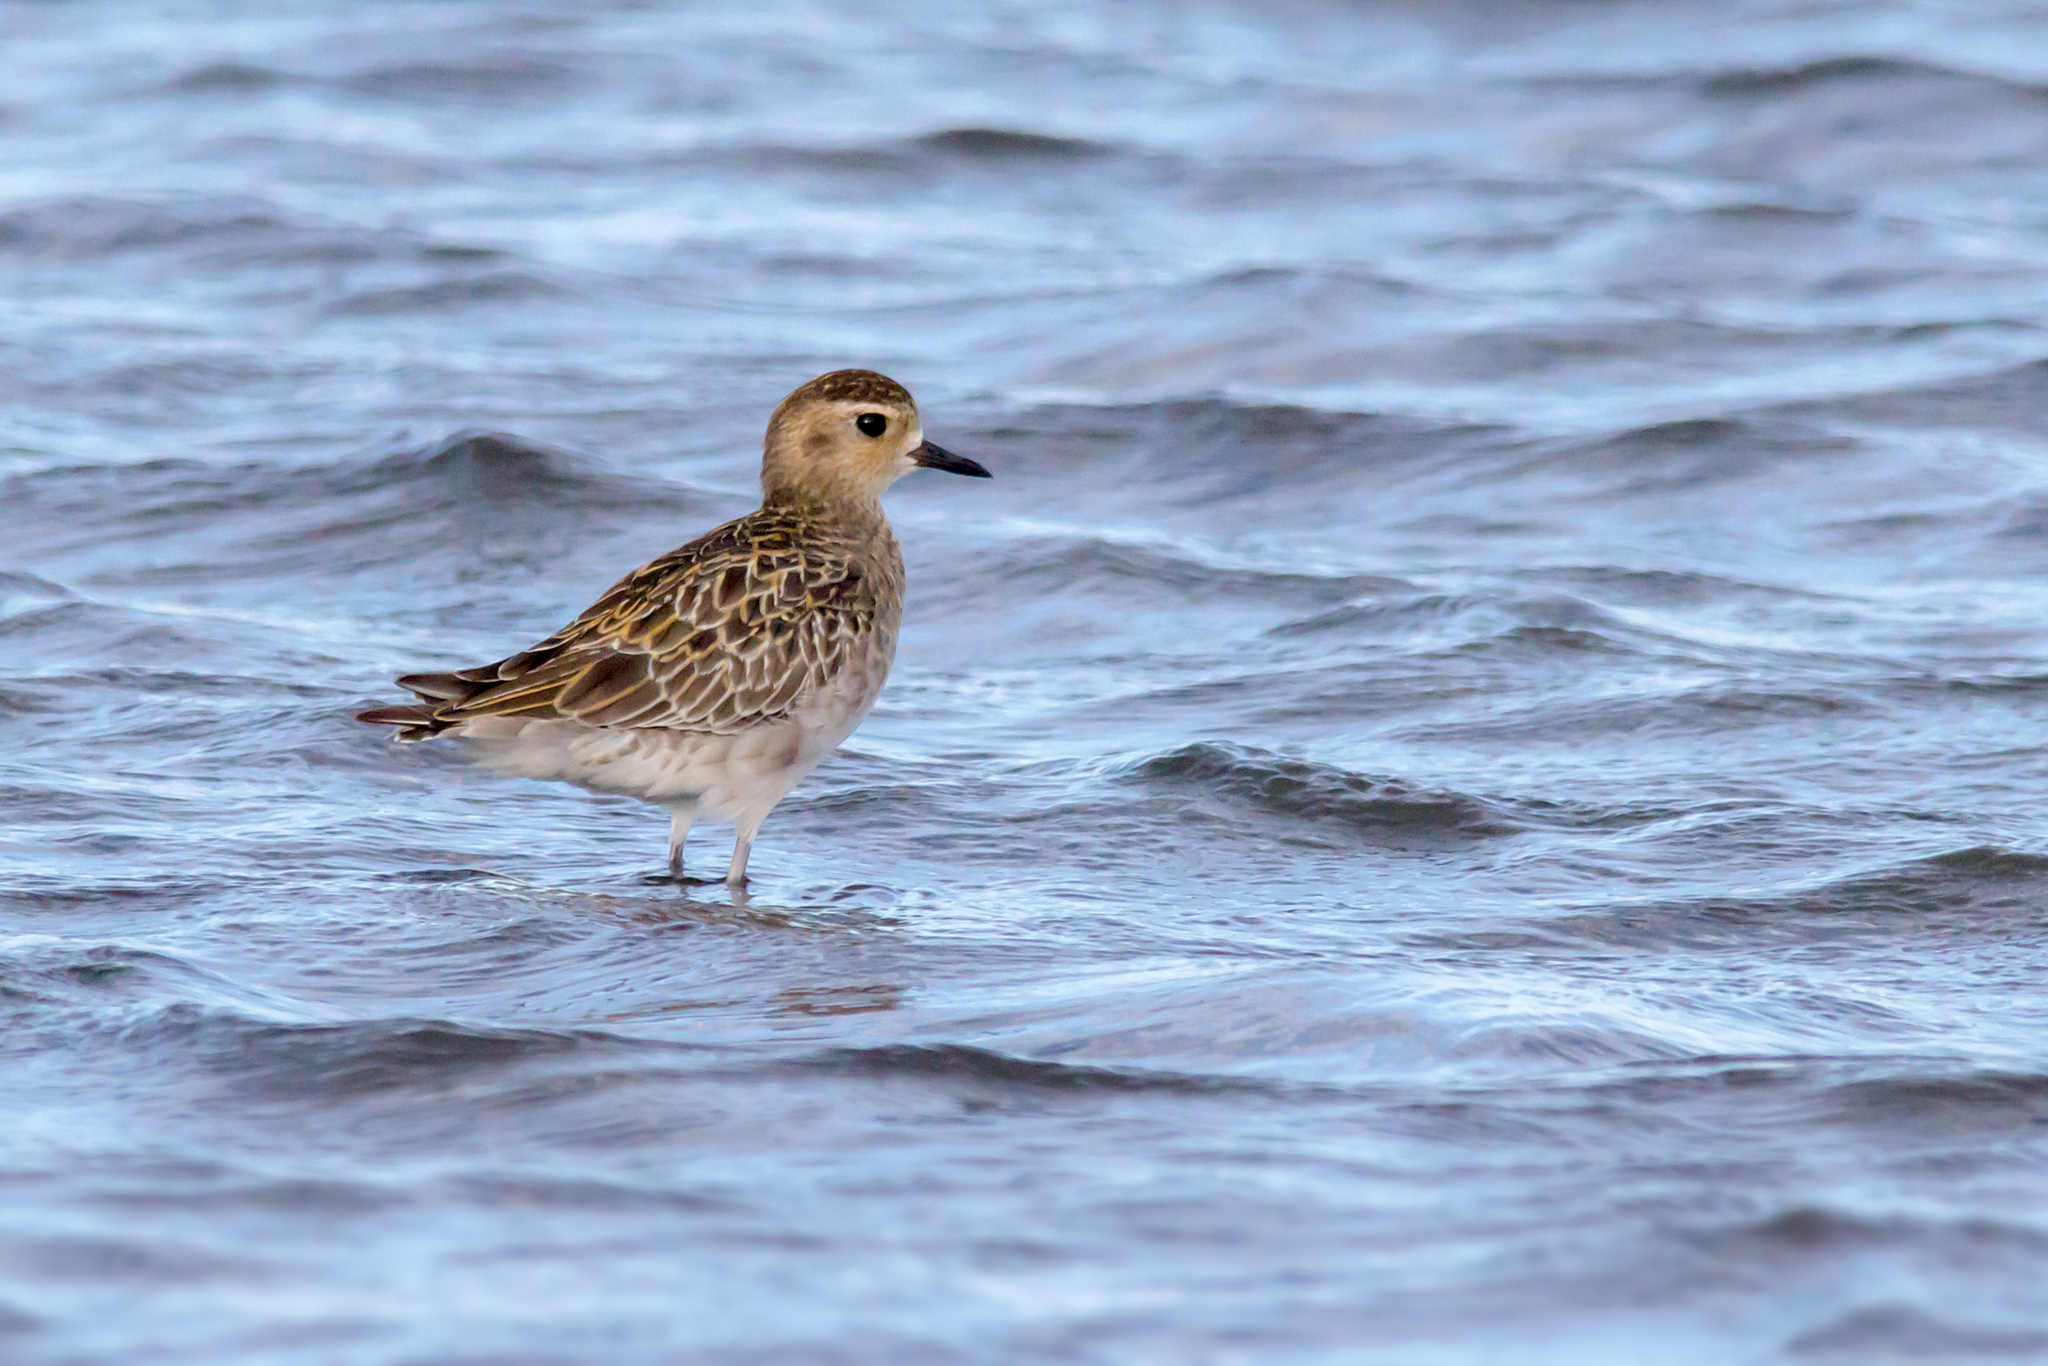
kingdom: Animalia
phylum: Chordata
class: Aves
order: Charadriiformes
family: Charadriidae
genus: Pluvialis
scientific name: Pluvialis fulva
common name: Pacific golden plover
